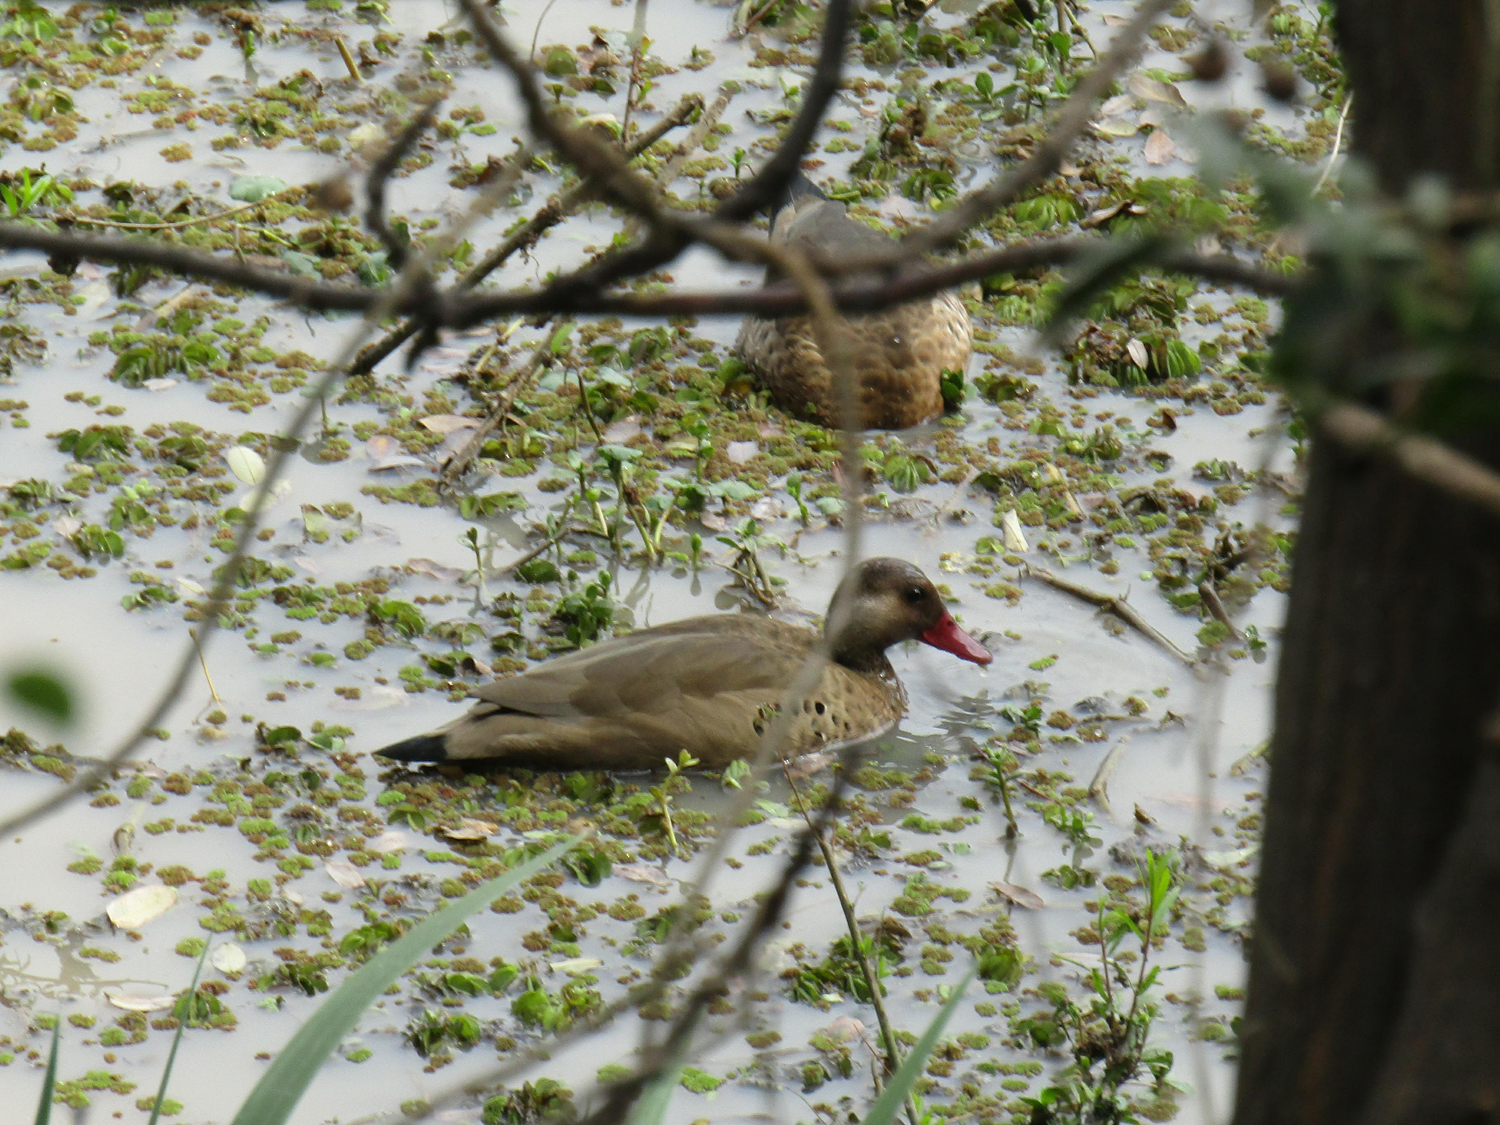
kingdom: Animalia
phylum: Chordata
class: Aves
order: Anseriformes
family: Anatidae
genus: Amazonetta
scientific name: Amazonetta brasiliensis
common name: Brazilian teal
